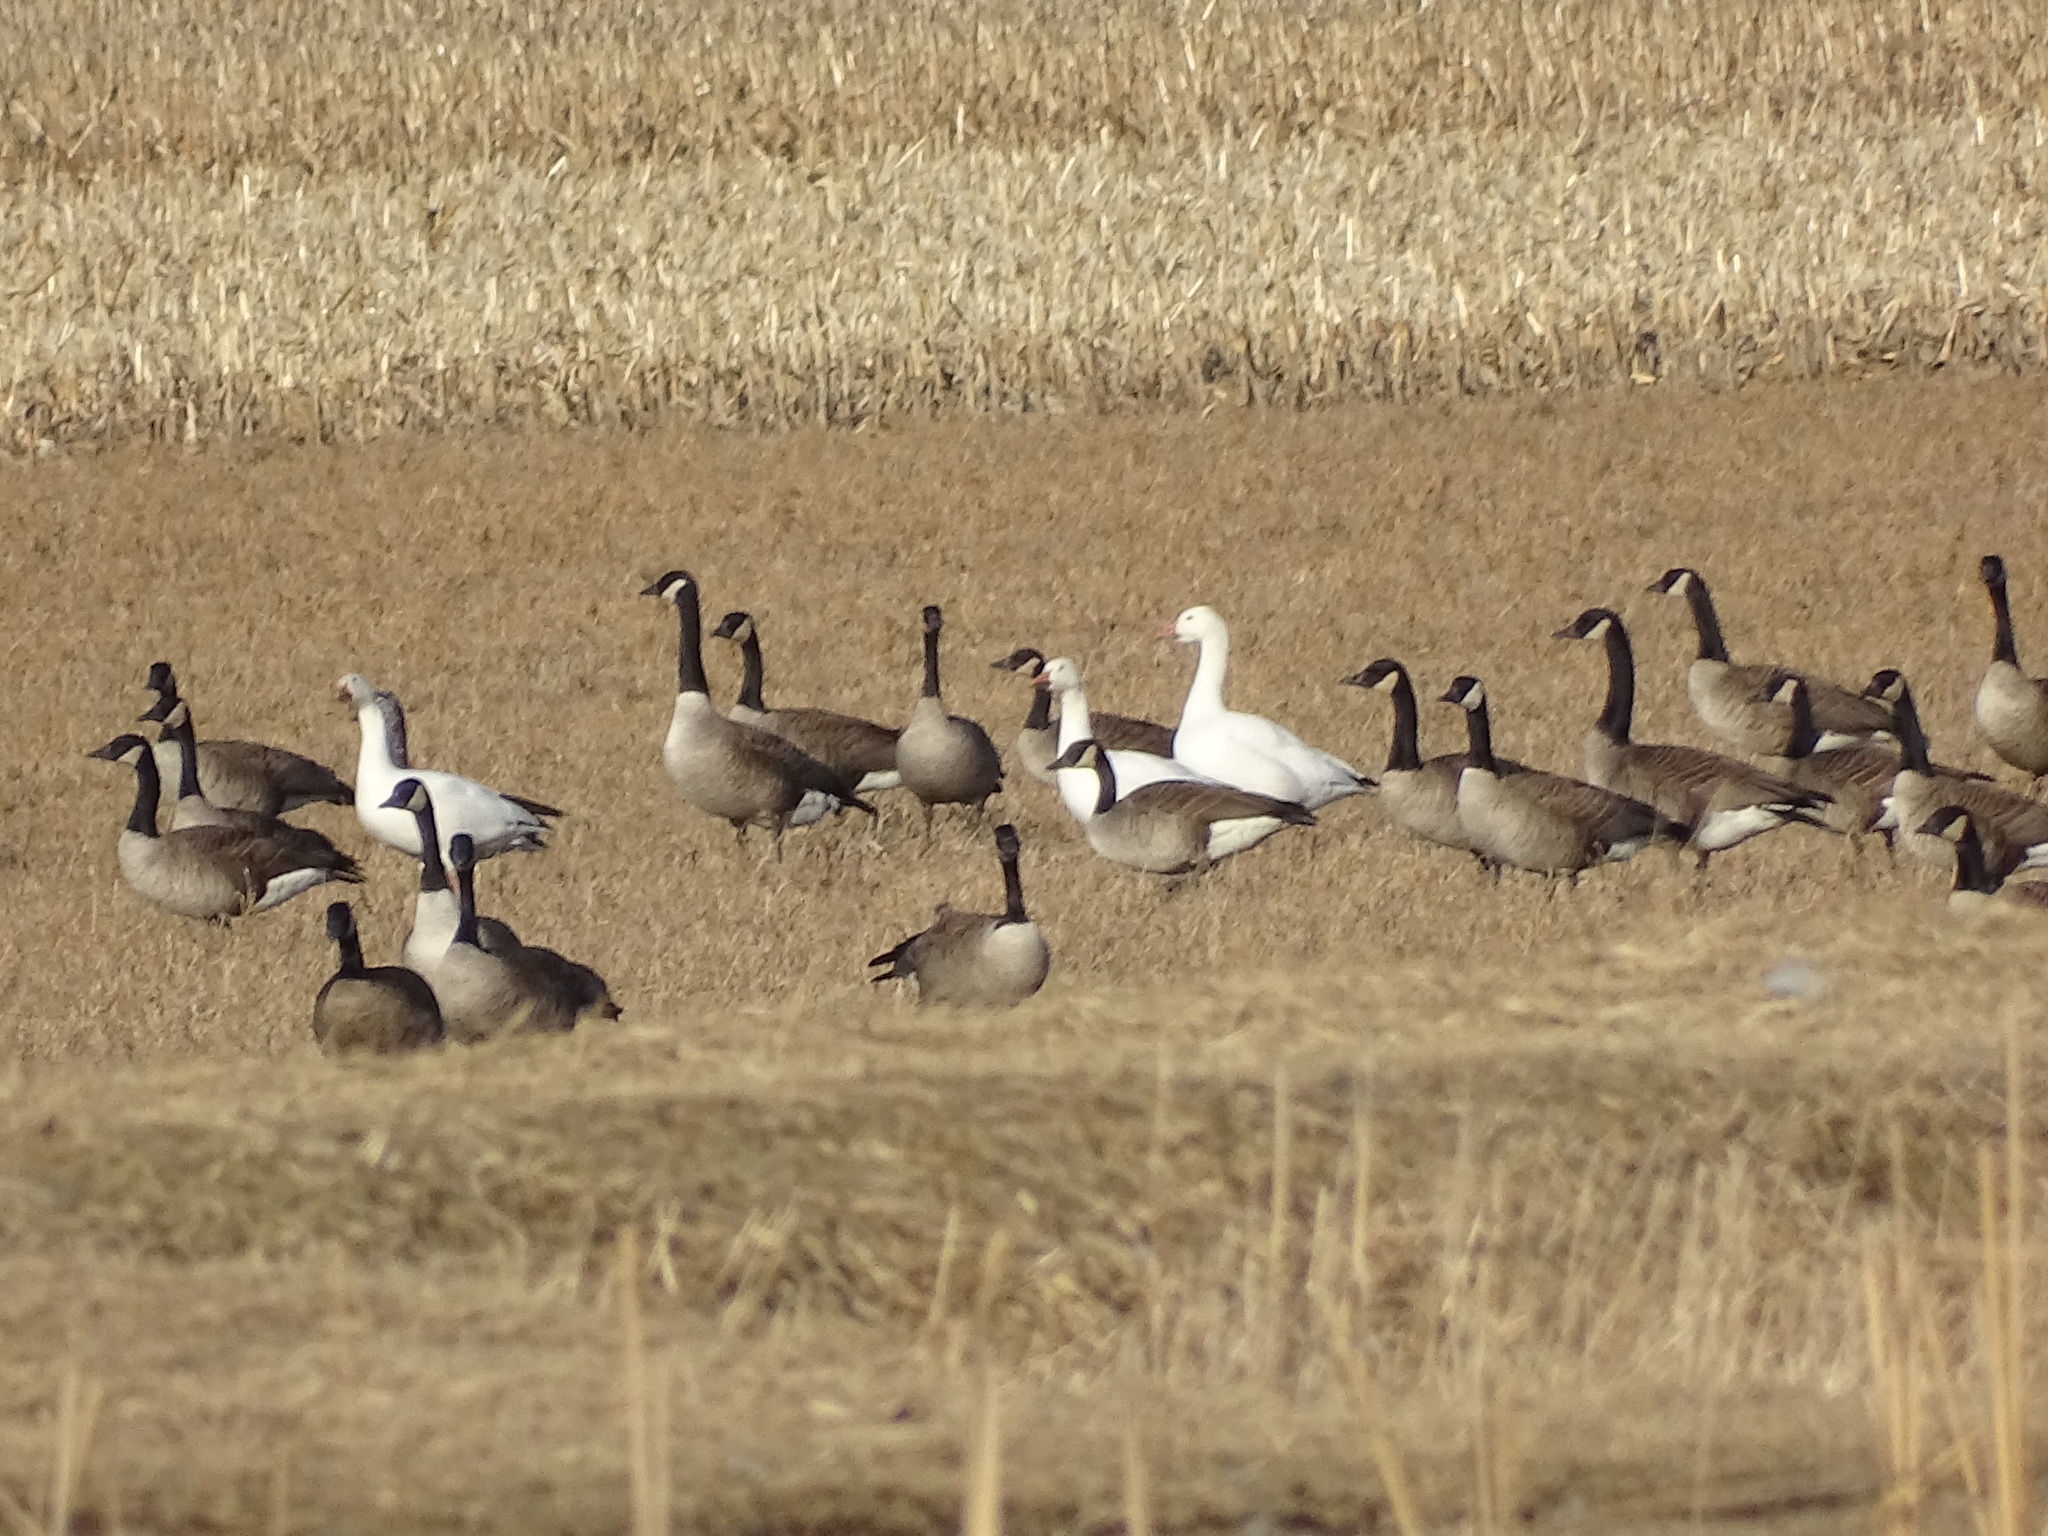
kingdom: Animalia
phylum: Chordata
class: Aves
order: Anseriformes
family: Anatidae
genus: Branta
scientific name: Branta canadensis
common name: Canada goose
